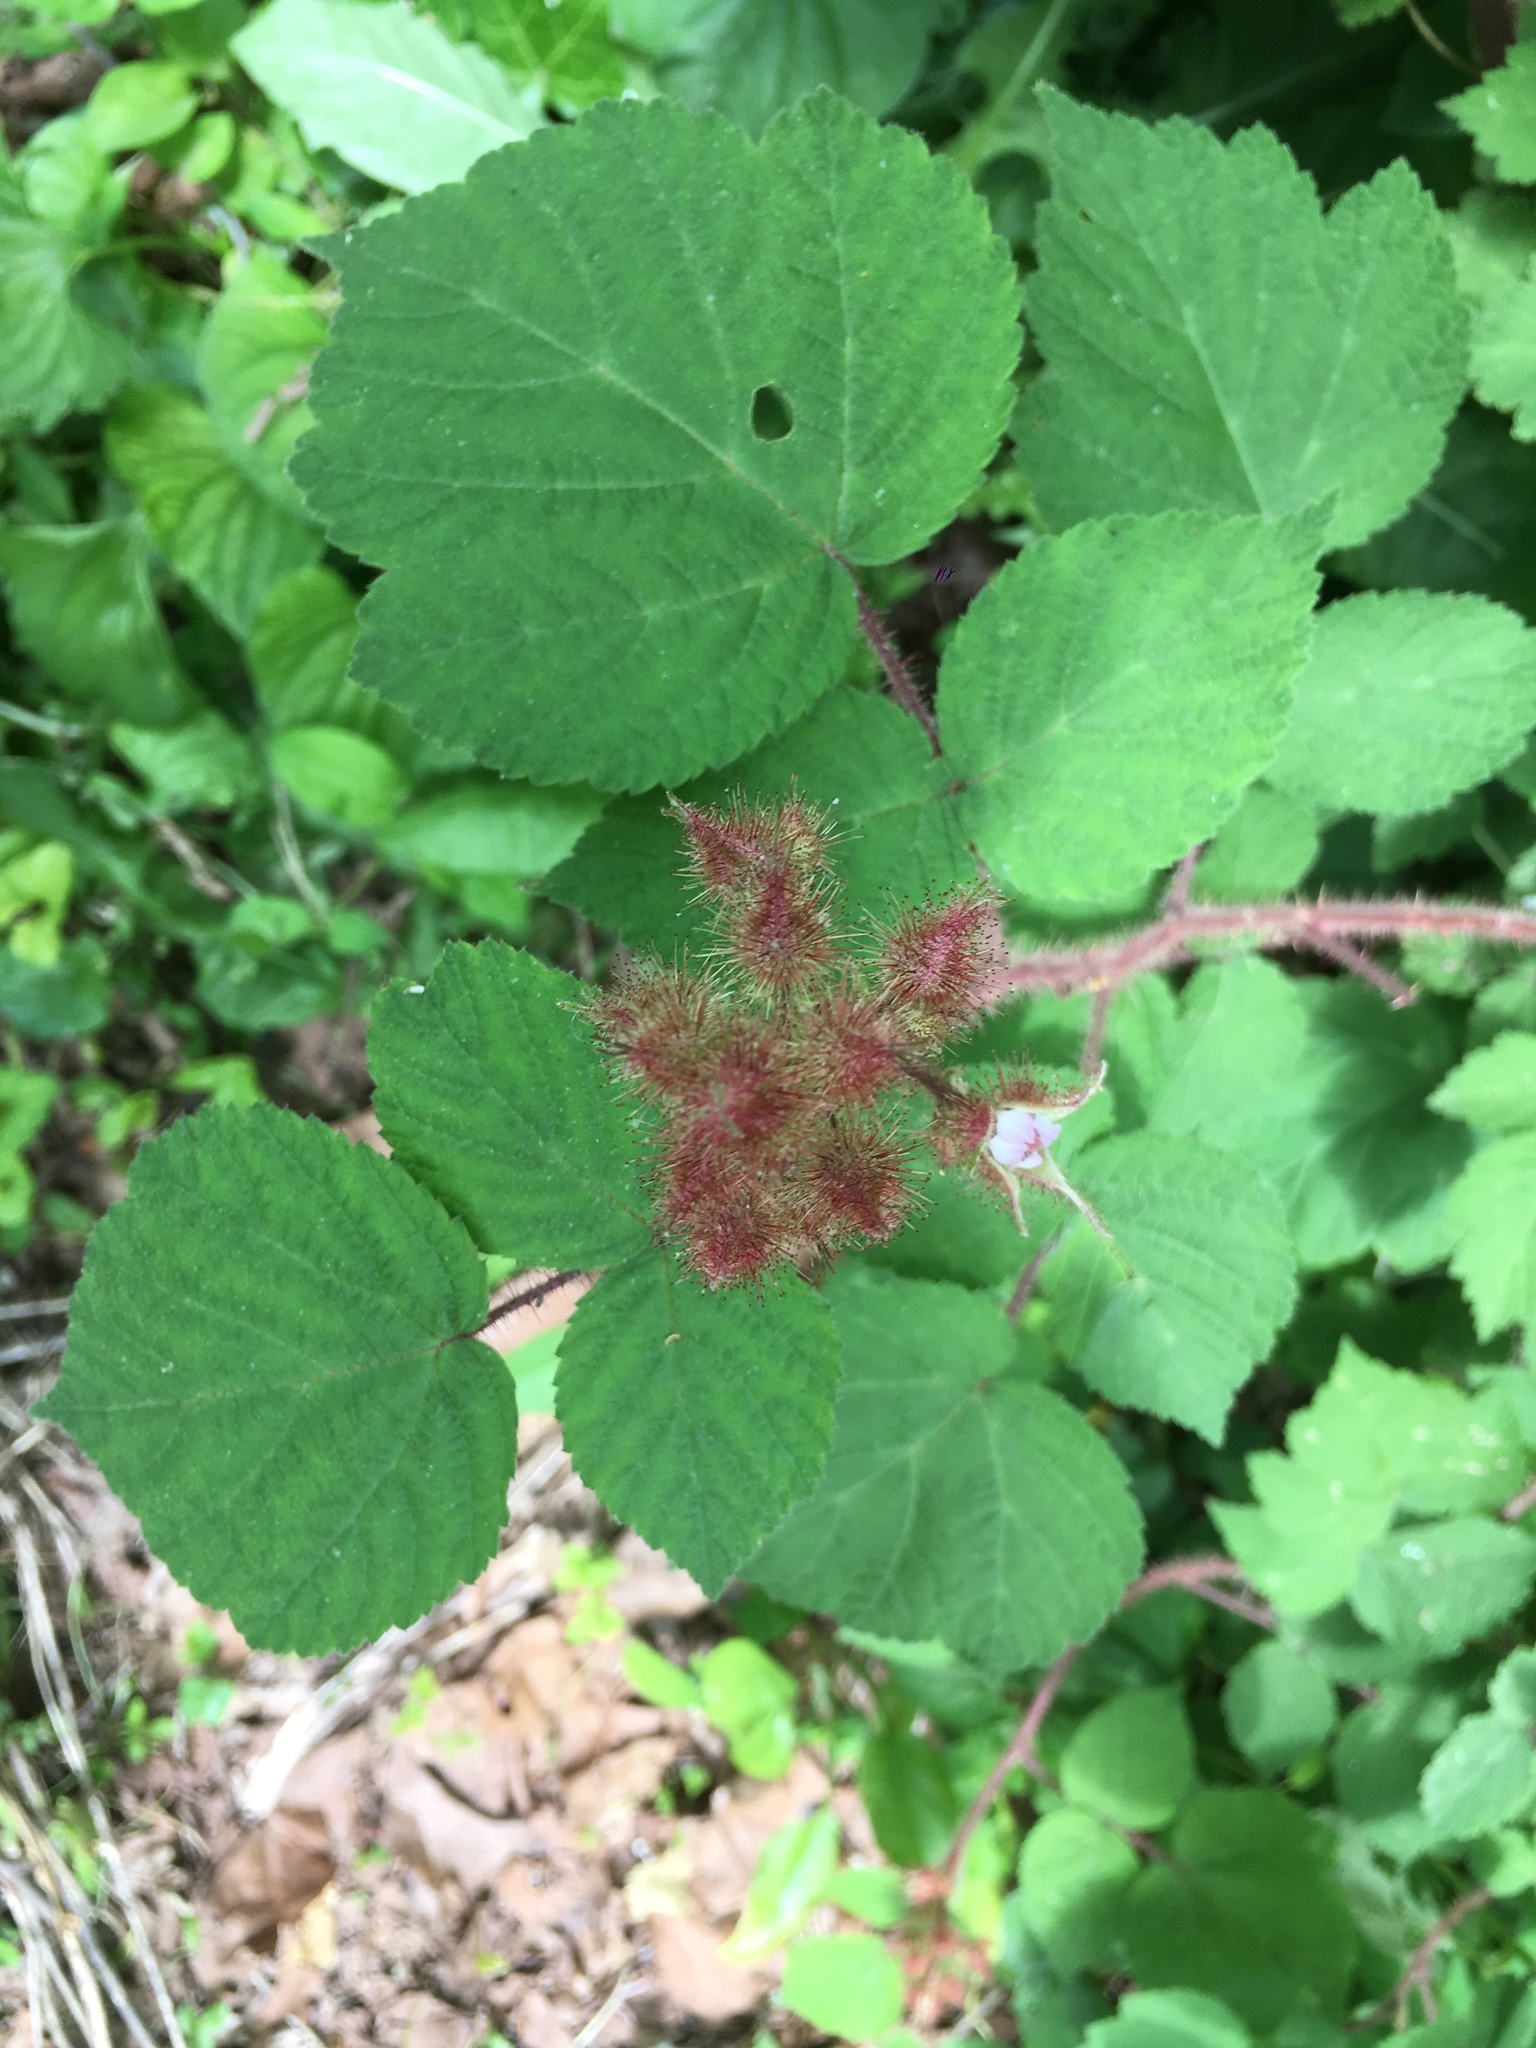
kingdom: Plantae
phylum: Tracheophyta
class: Magnoliopsida
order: Rosales
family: Rosaceae
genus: Rubus
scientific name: Rubus phoenicolasius
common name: Japanese wineberry
